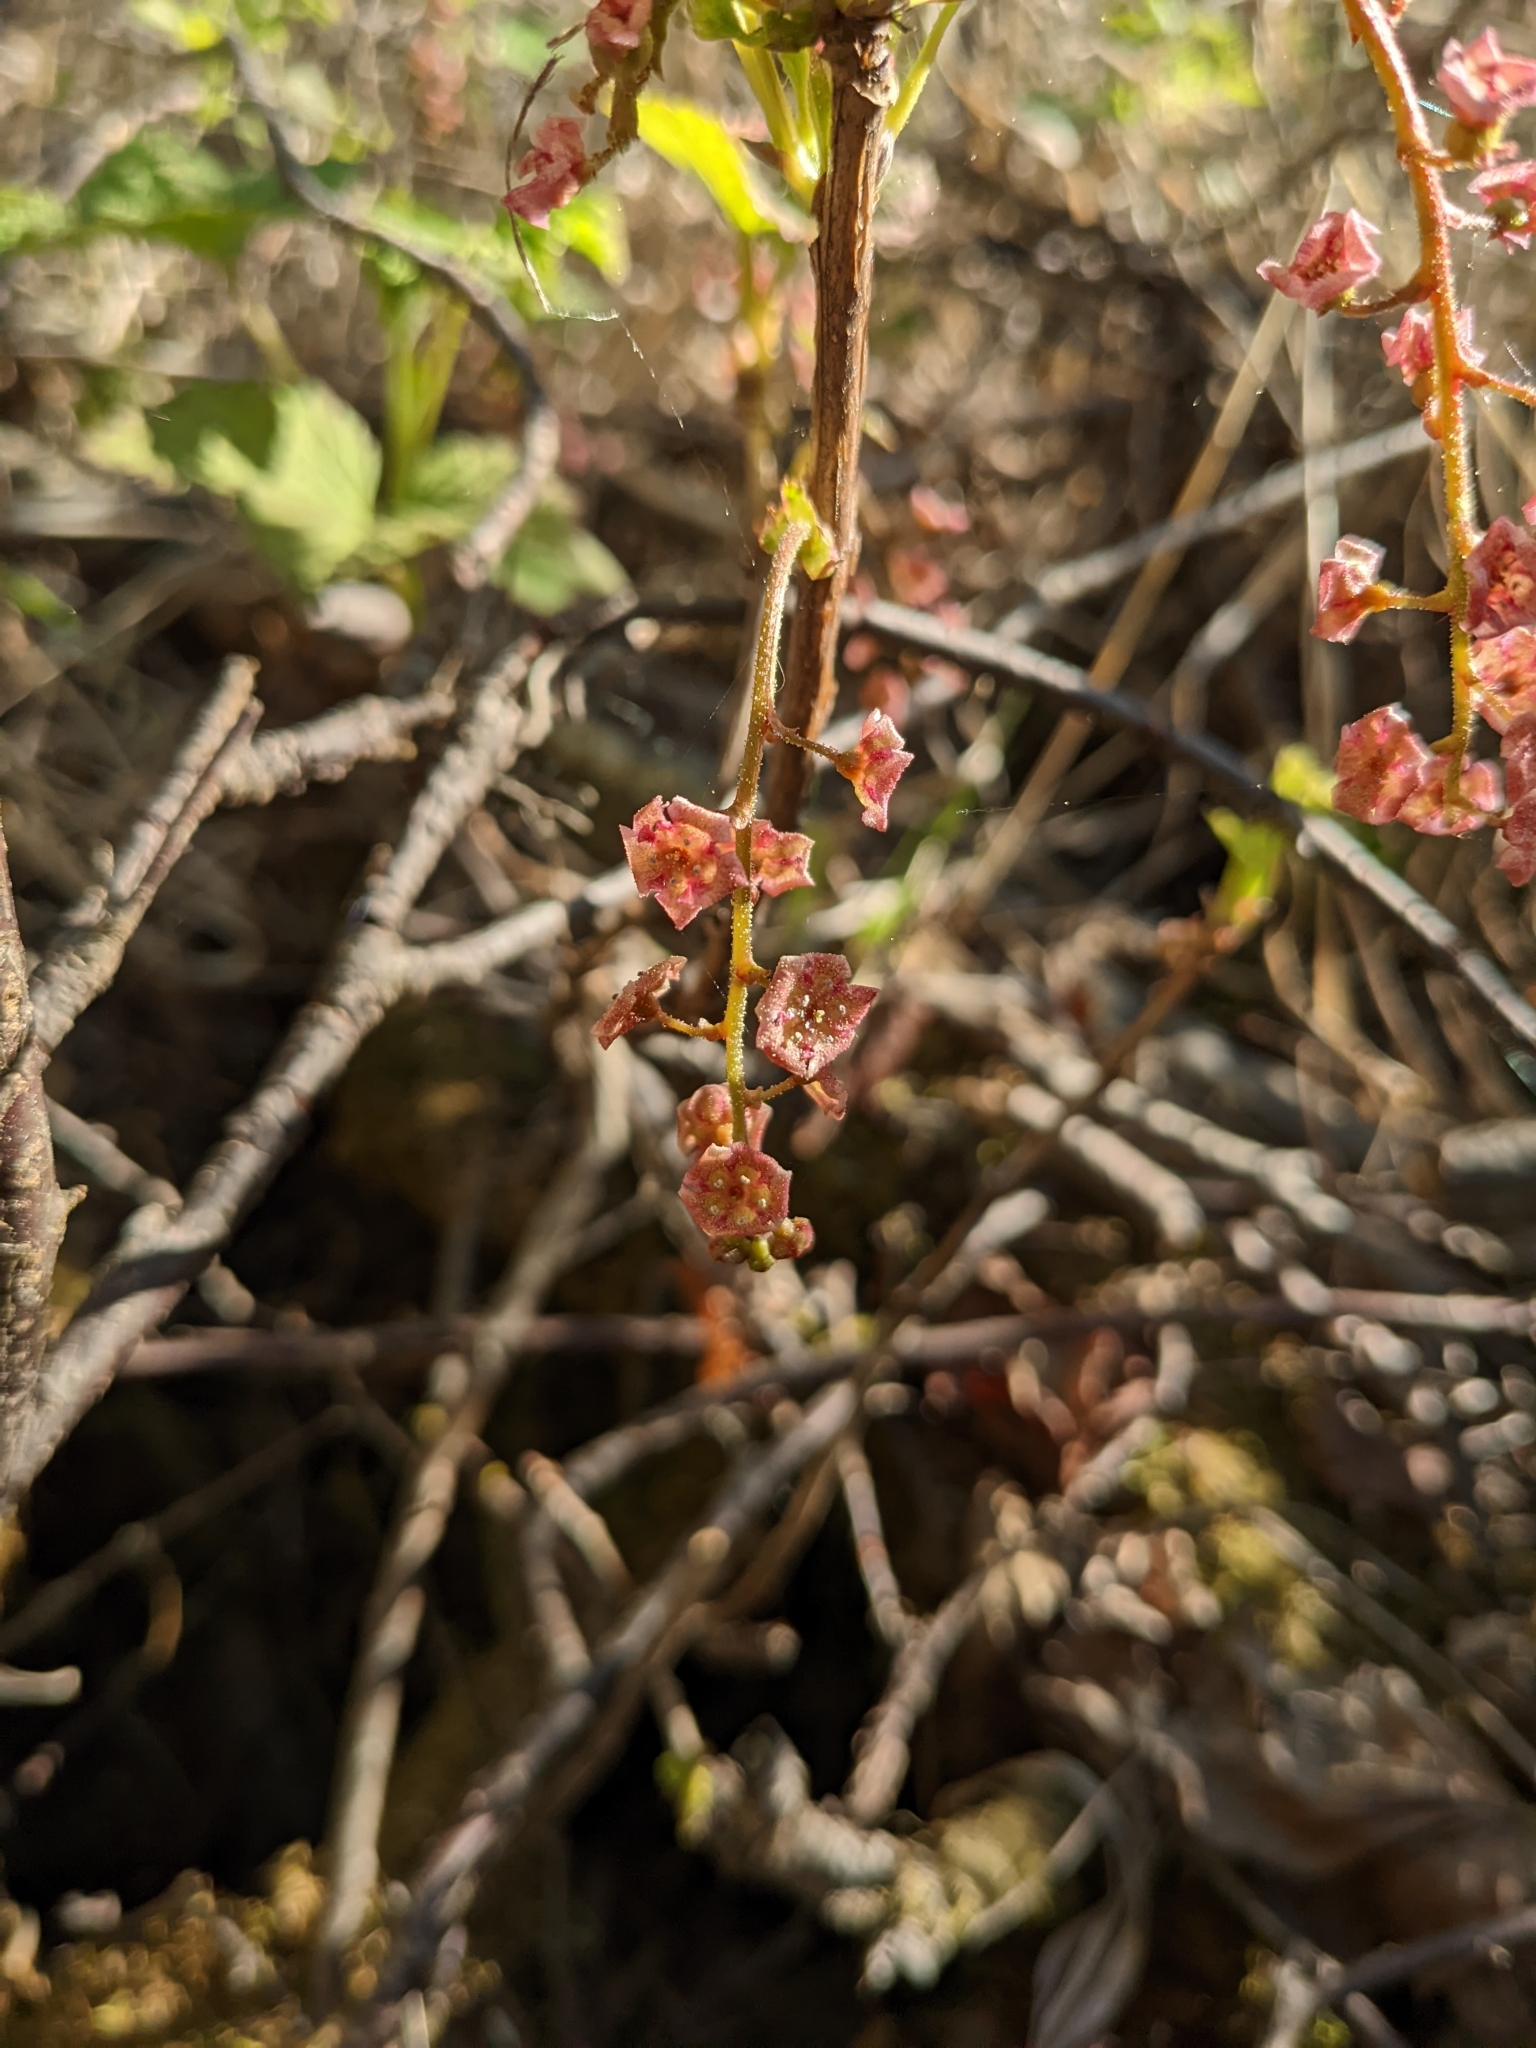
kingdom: Plantae
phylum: Tracheophyta
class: Magnoliopsida
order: Saxifragales
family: Grossulariaceae
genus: Ribes
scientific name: Ribes triste
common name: Swamp red currant
